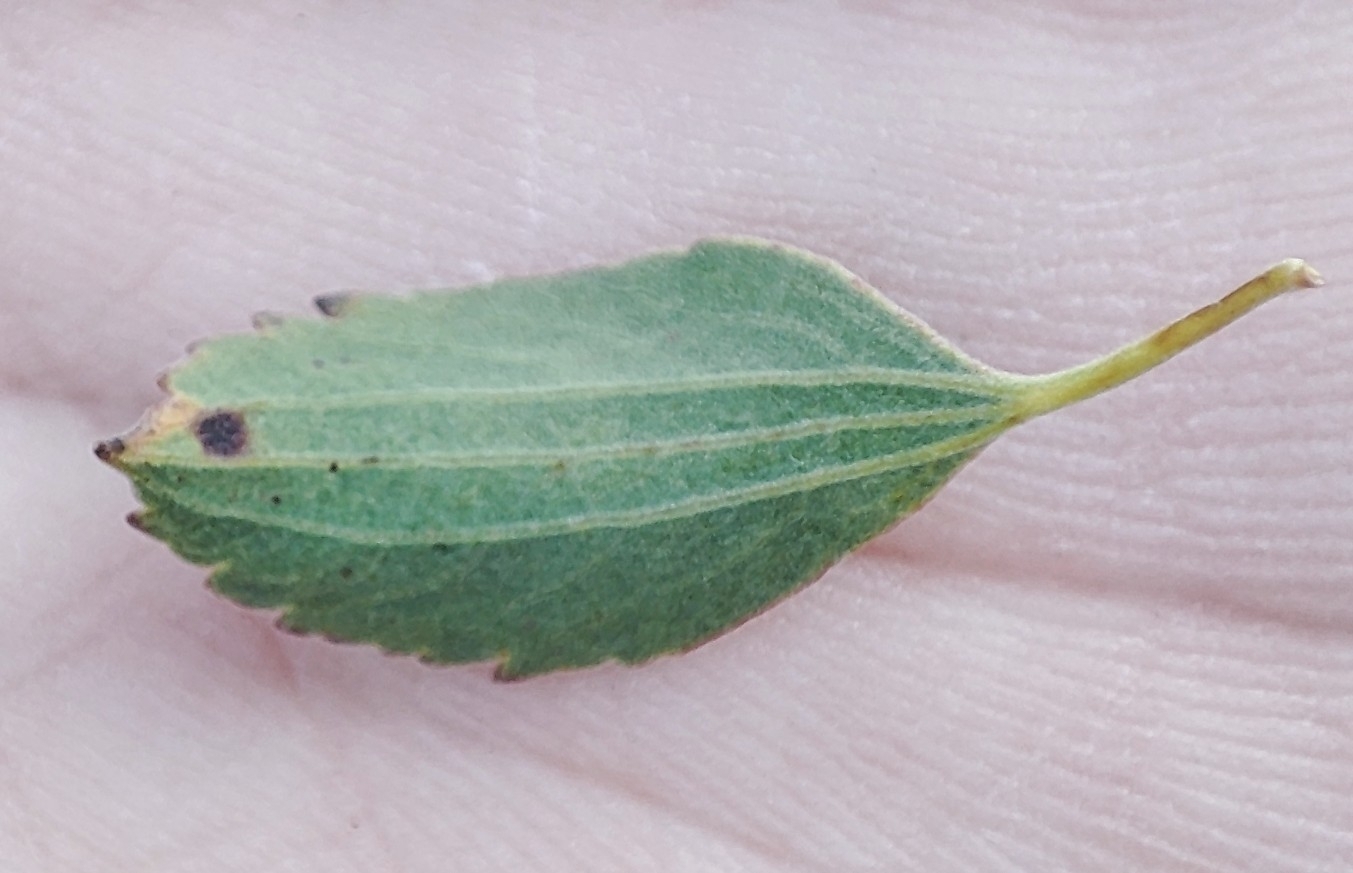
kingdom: Plantae
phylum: Tracheophyta
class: Magnoliopsida
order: Rosales
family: Rosaceae
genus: Spiraea
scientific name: Spiraea crenata
